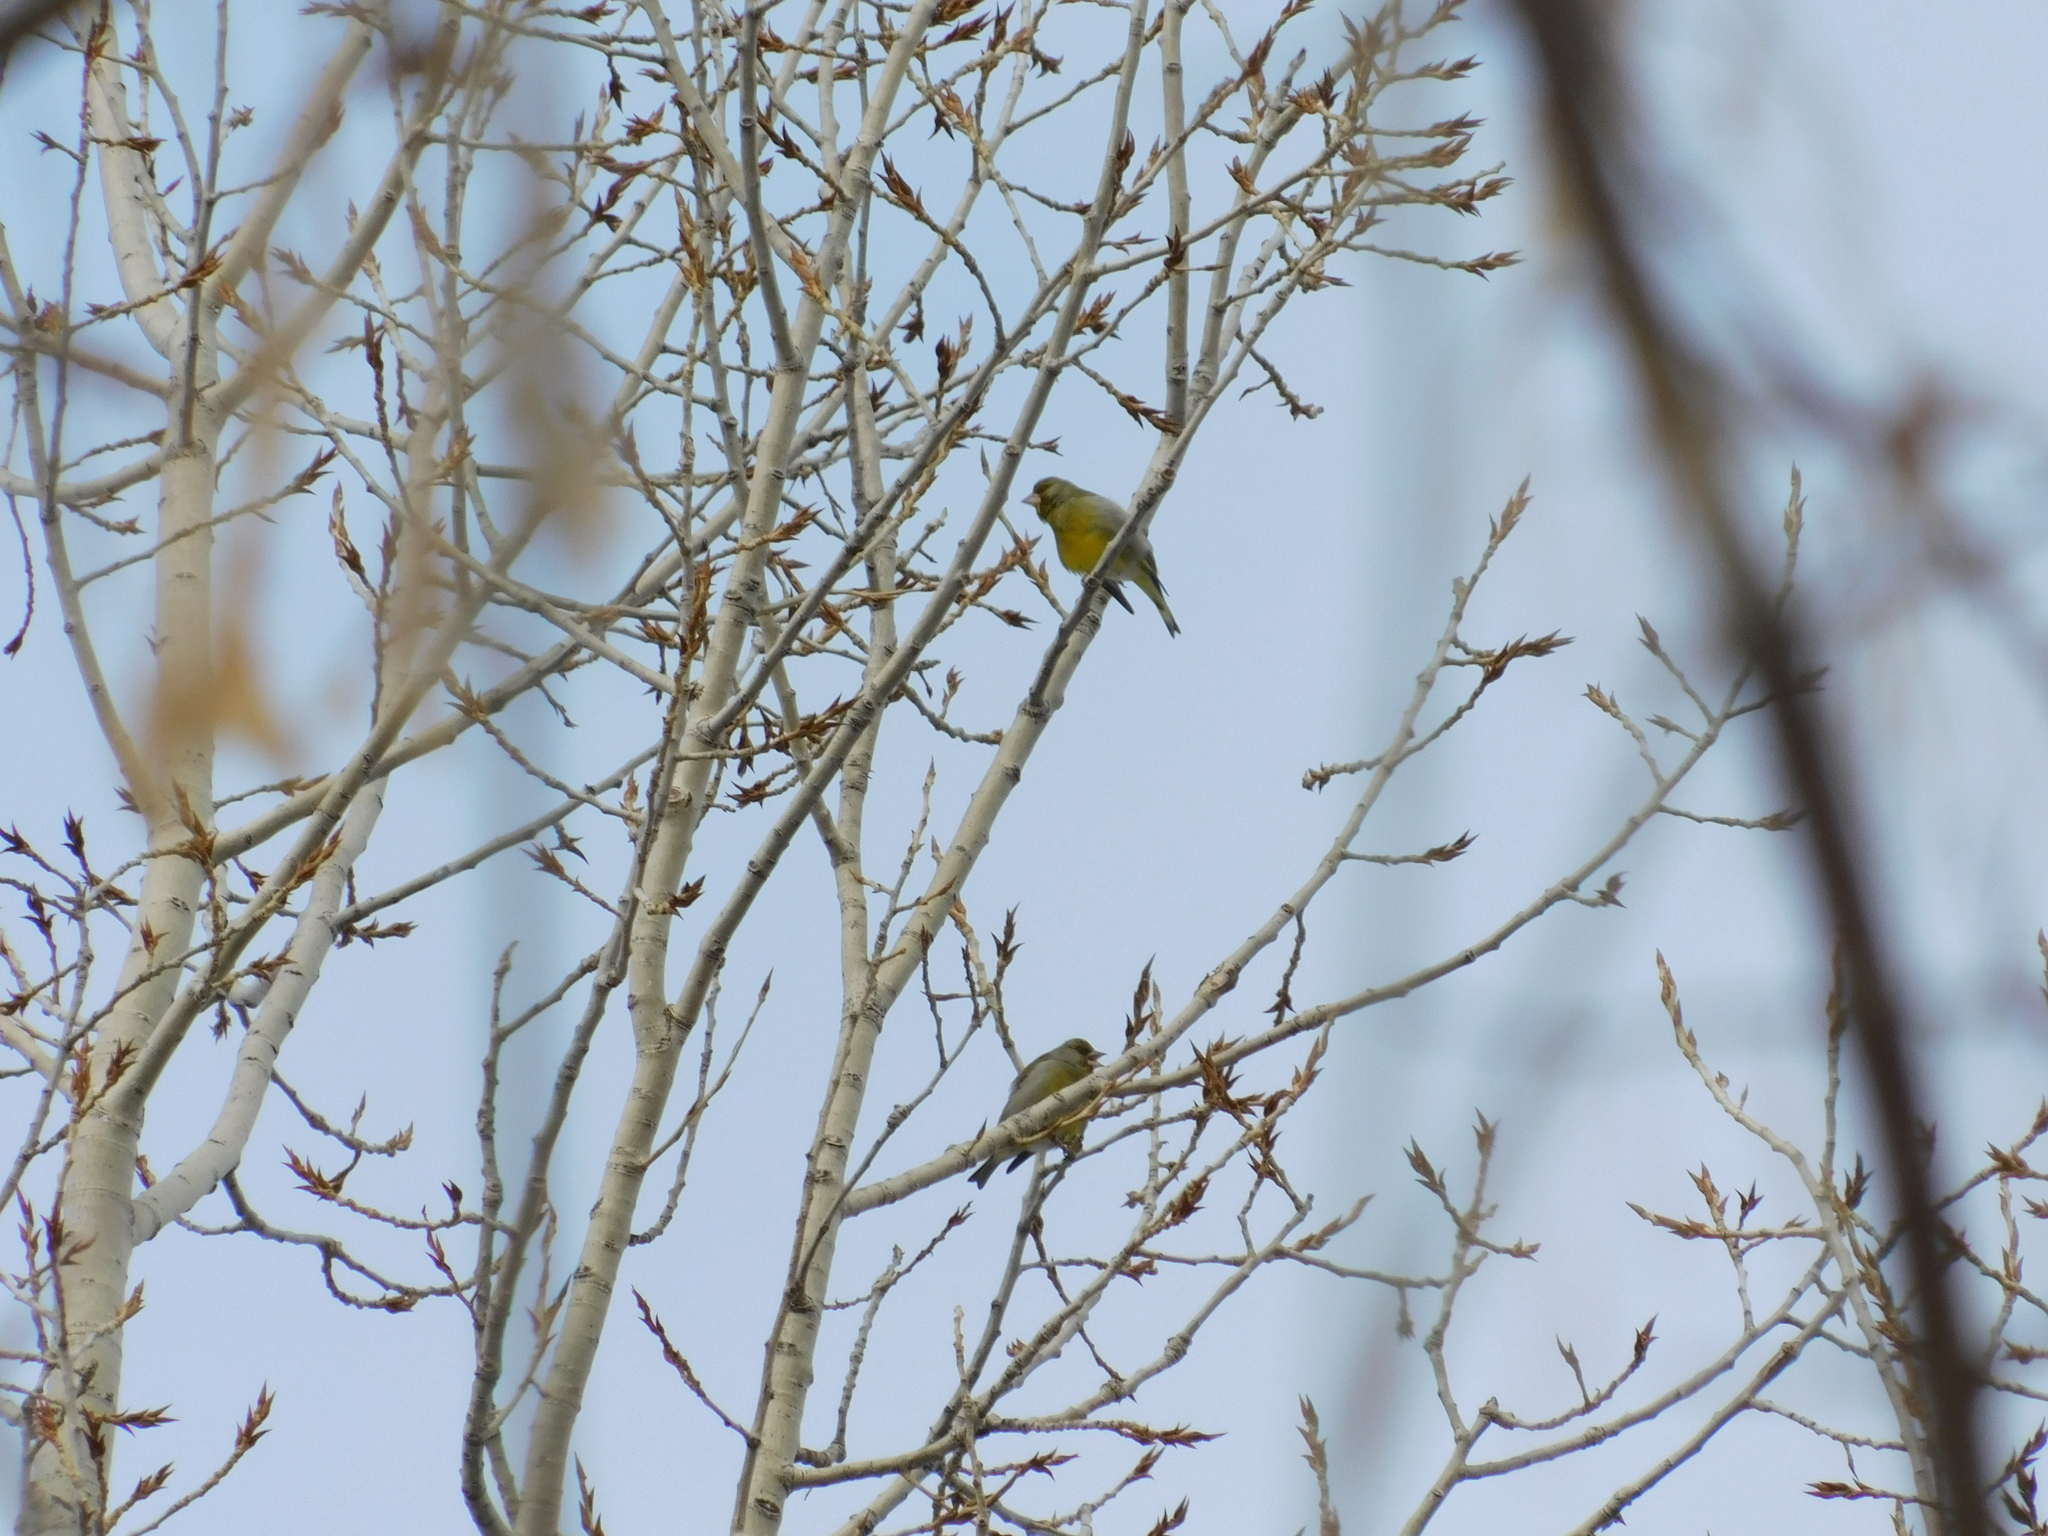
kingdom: Plantae
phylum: Tracheophyta
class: Liliopsida
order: Poales
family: Poaceae
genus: Chloris
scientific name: Chloris chloris
